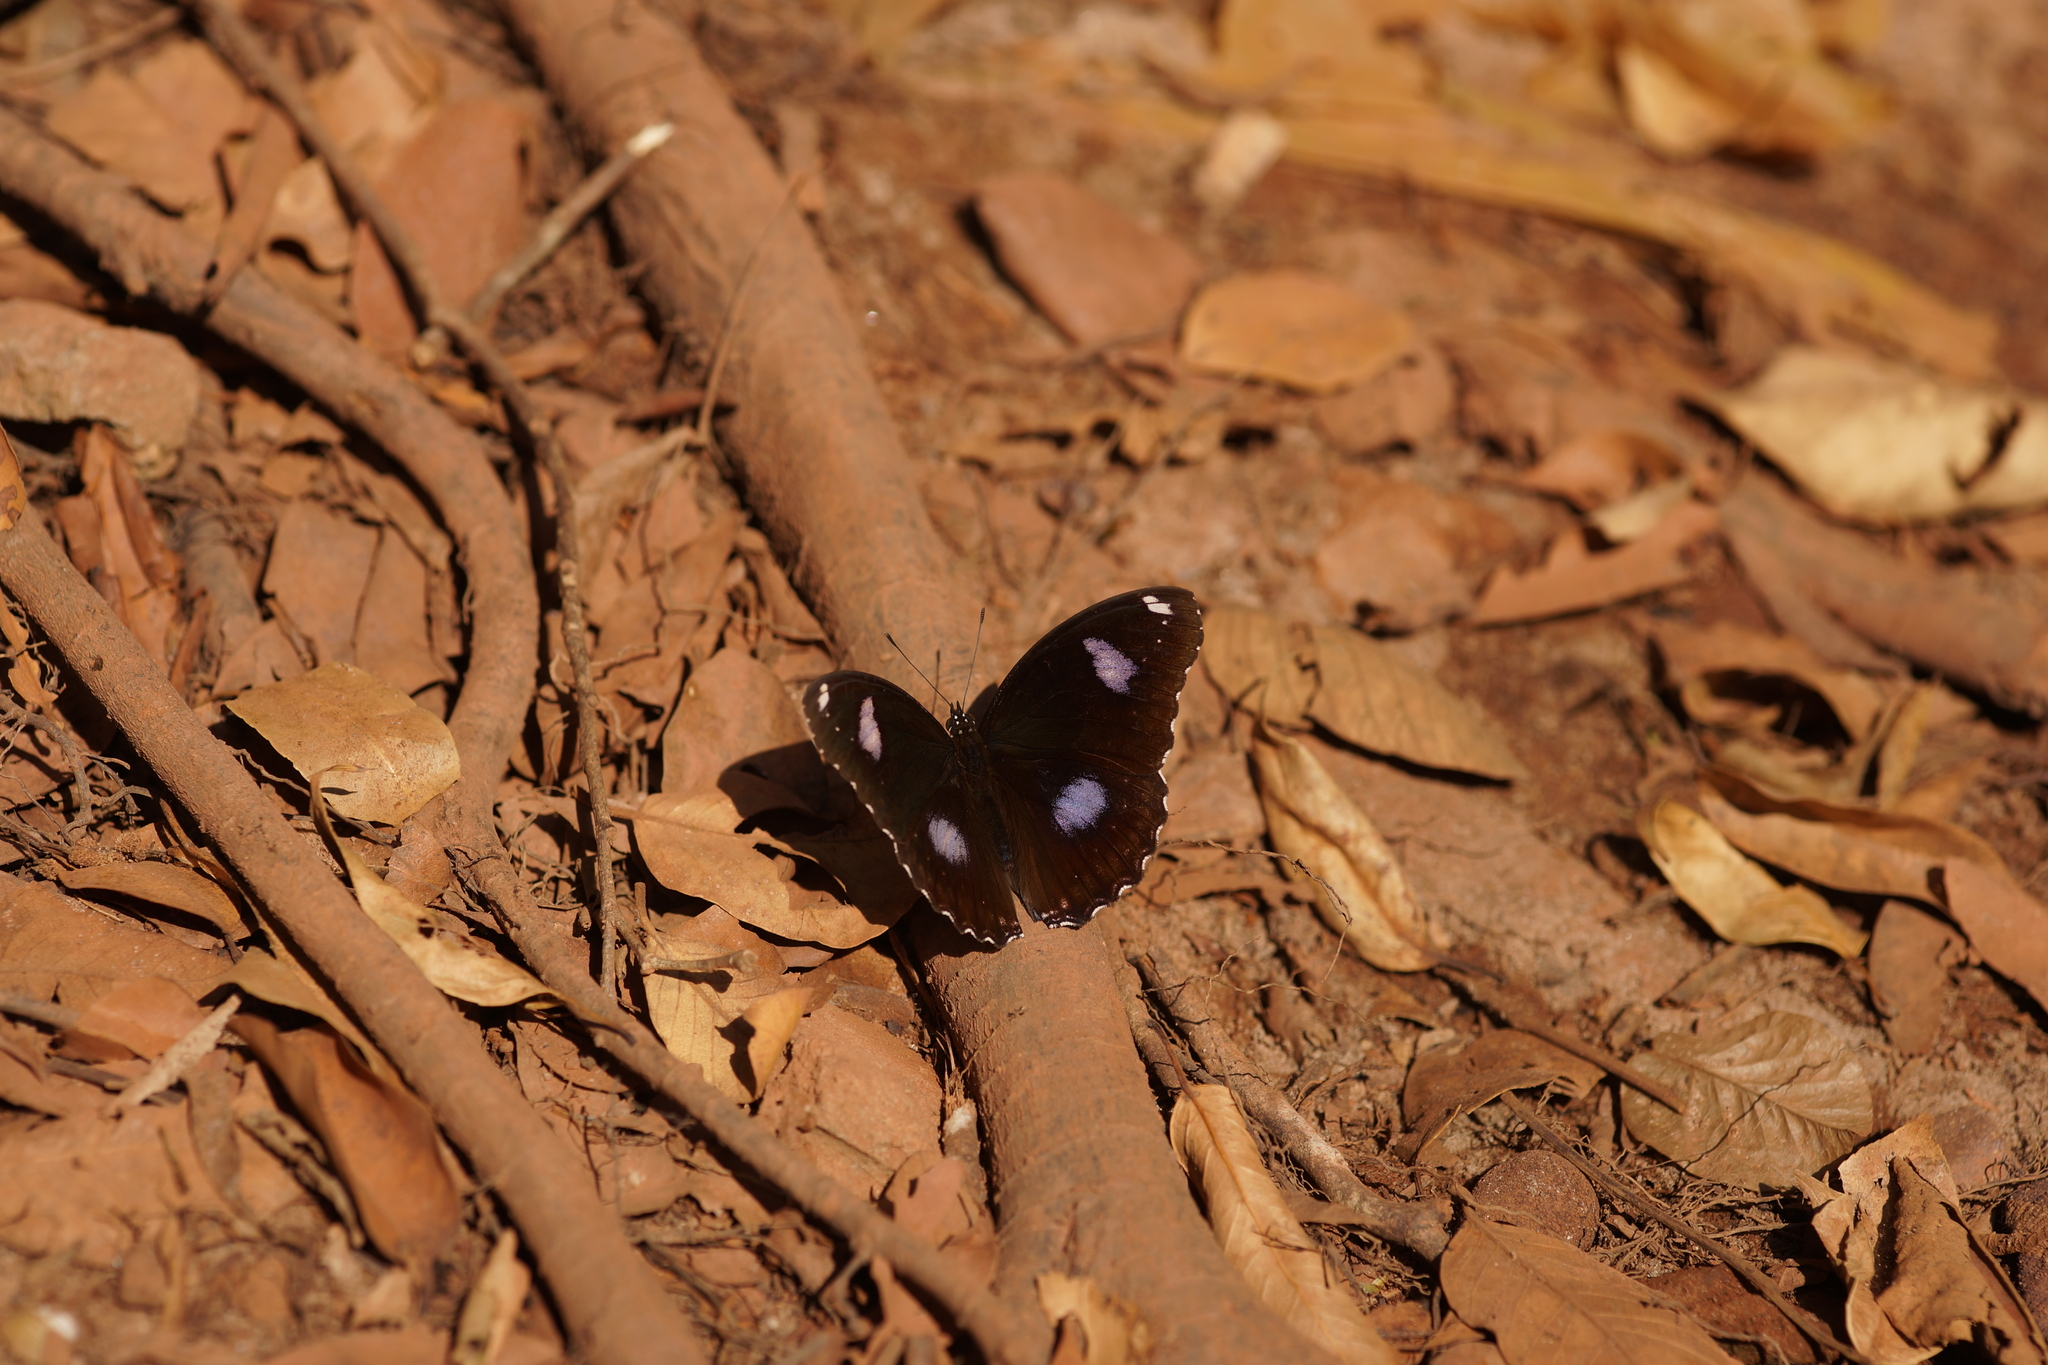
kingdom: Animalia
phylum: Arthropoda
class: Insecta
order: Lepidoptera
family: Nymphalidae
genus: Hypolimnas
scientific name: Hypolimnas bolina
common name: Great eggfly
